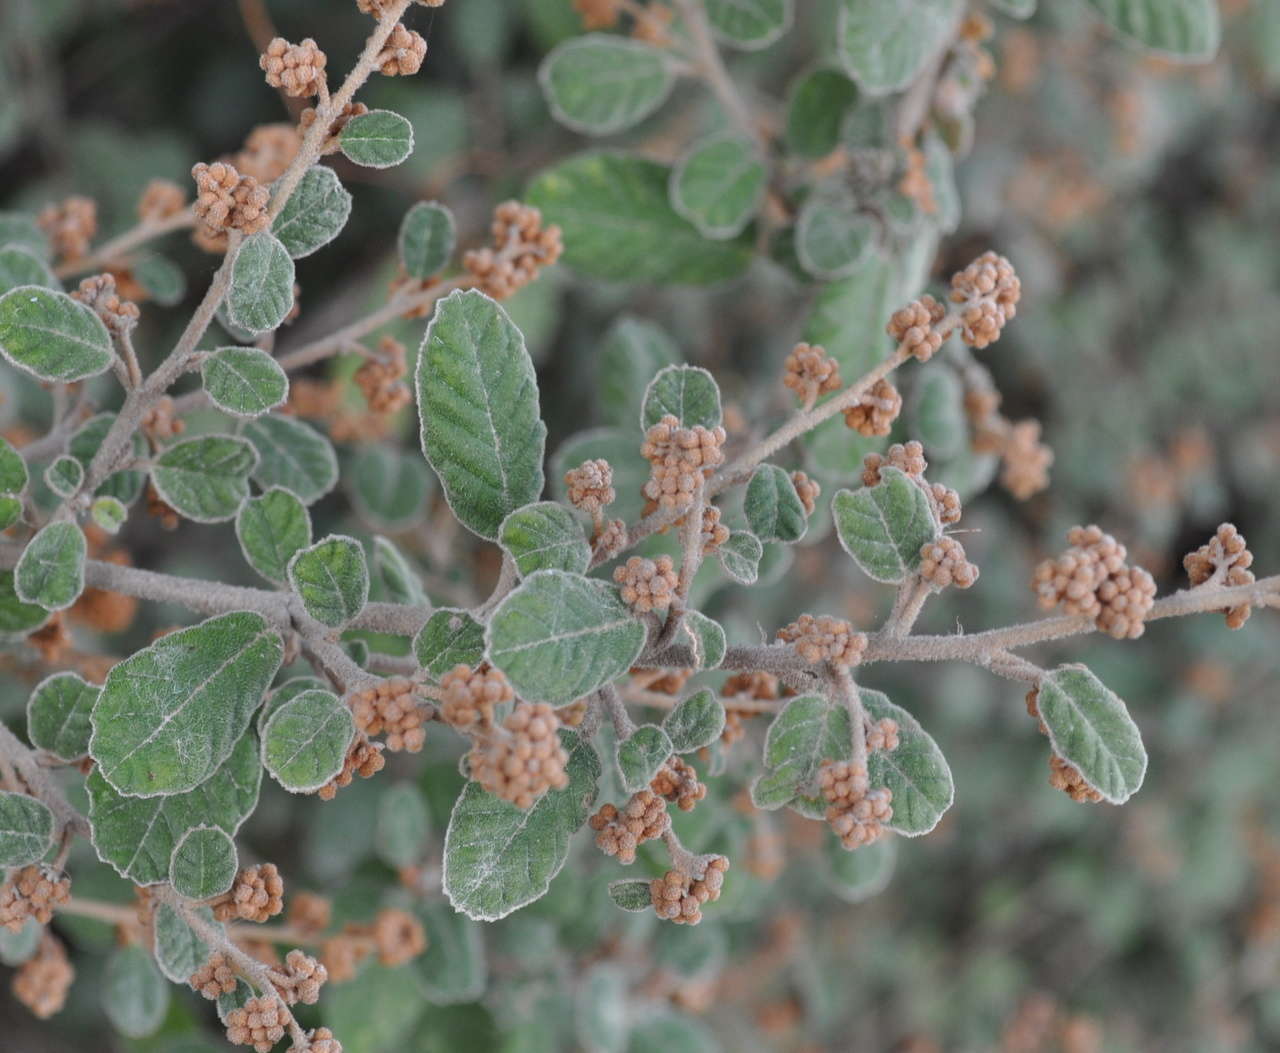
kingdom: Plantae
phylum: Tracheophyta
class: Magnoliopsida
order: Rosales
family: Rhamnaceae
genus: Pomaderris
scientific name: Pomaderris oraria
